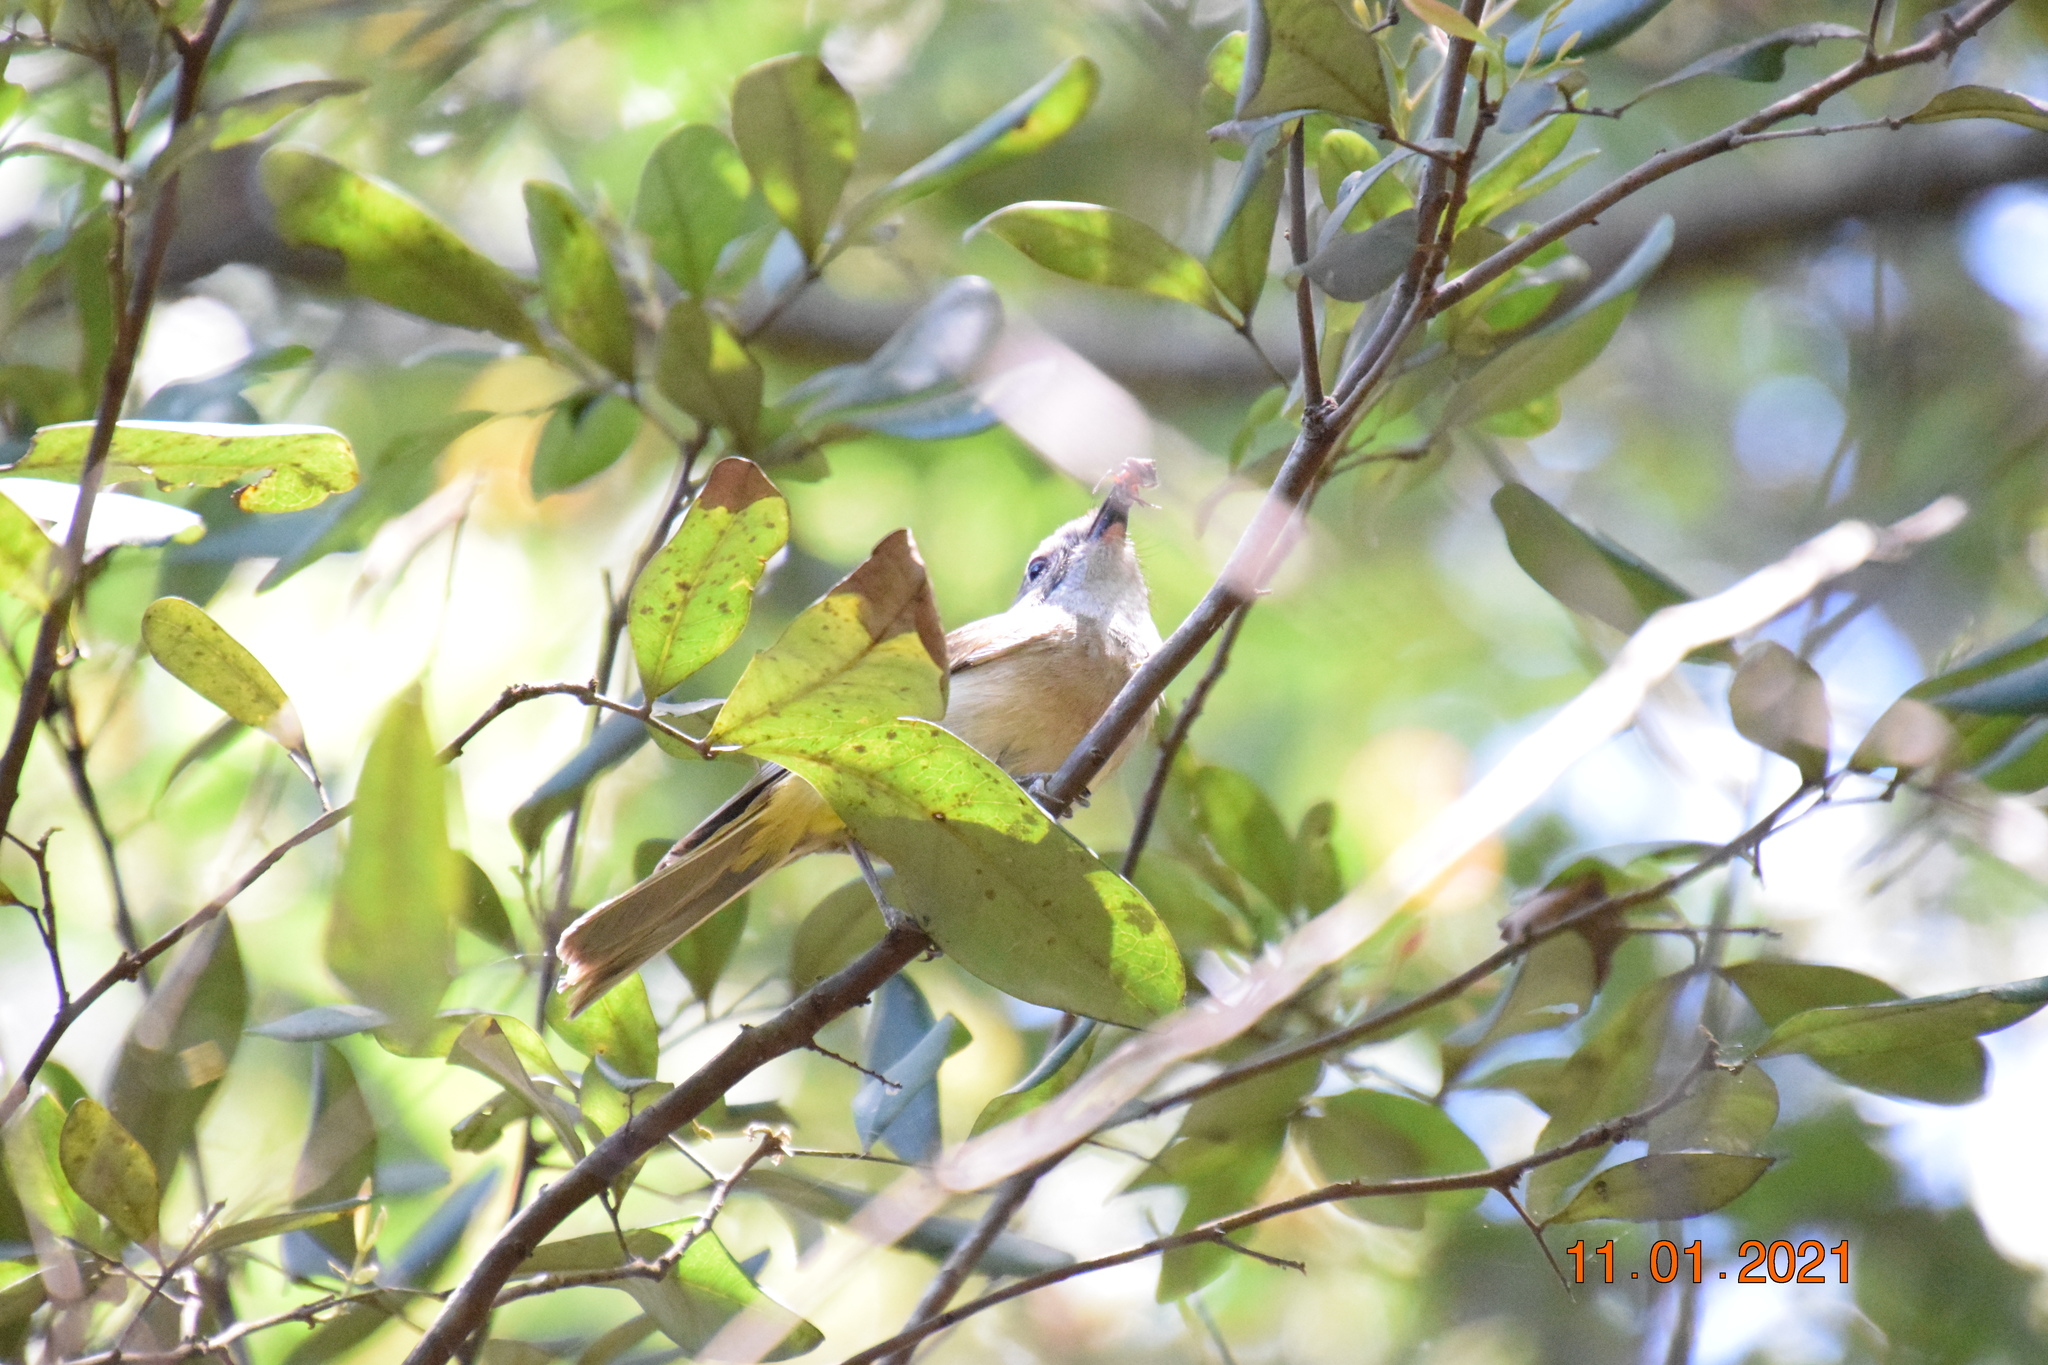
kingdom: Animalia
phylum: Chordata
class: Aves
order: Passeriformes
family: Pachycephalidae
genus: Pachycephala
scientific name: Pachycephala pectoralis
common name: Australian golden whistler
